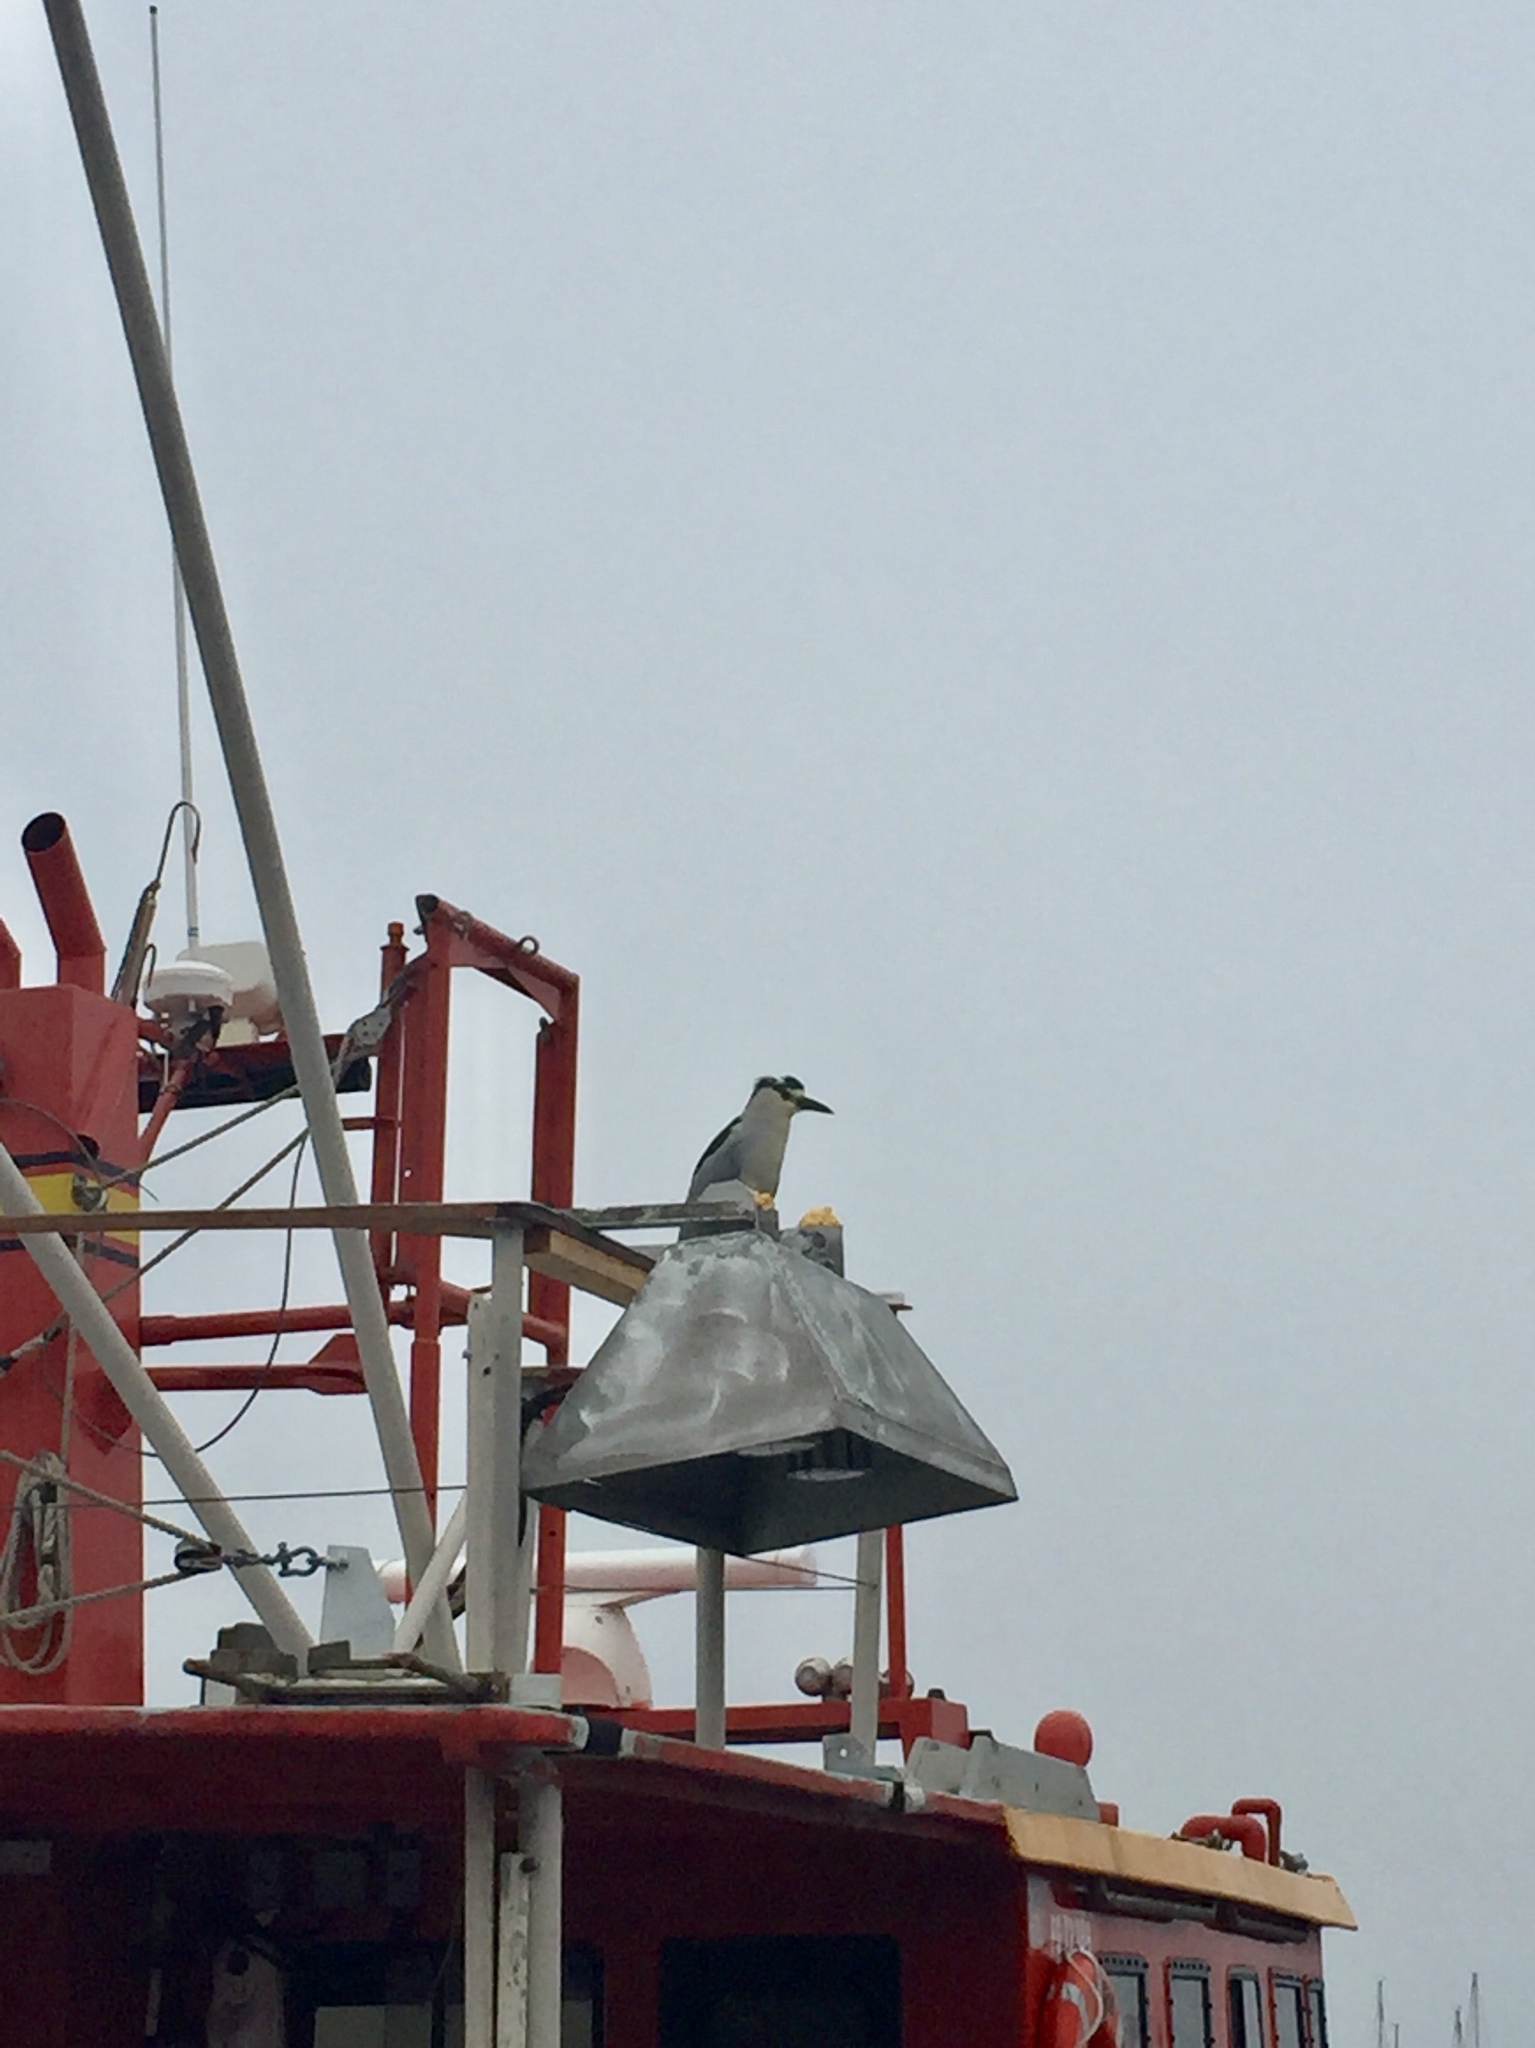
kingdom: Animalia
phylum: Chordata
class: Aves
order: Pelecaniformes
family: Ardeidae
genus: Nycticorax
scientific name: Nycticorax nycticorax
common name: Black-crowned night heron
